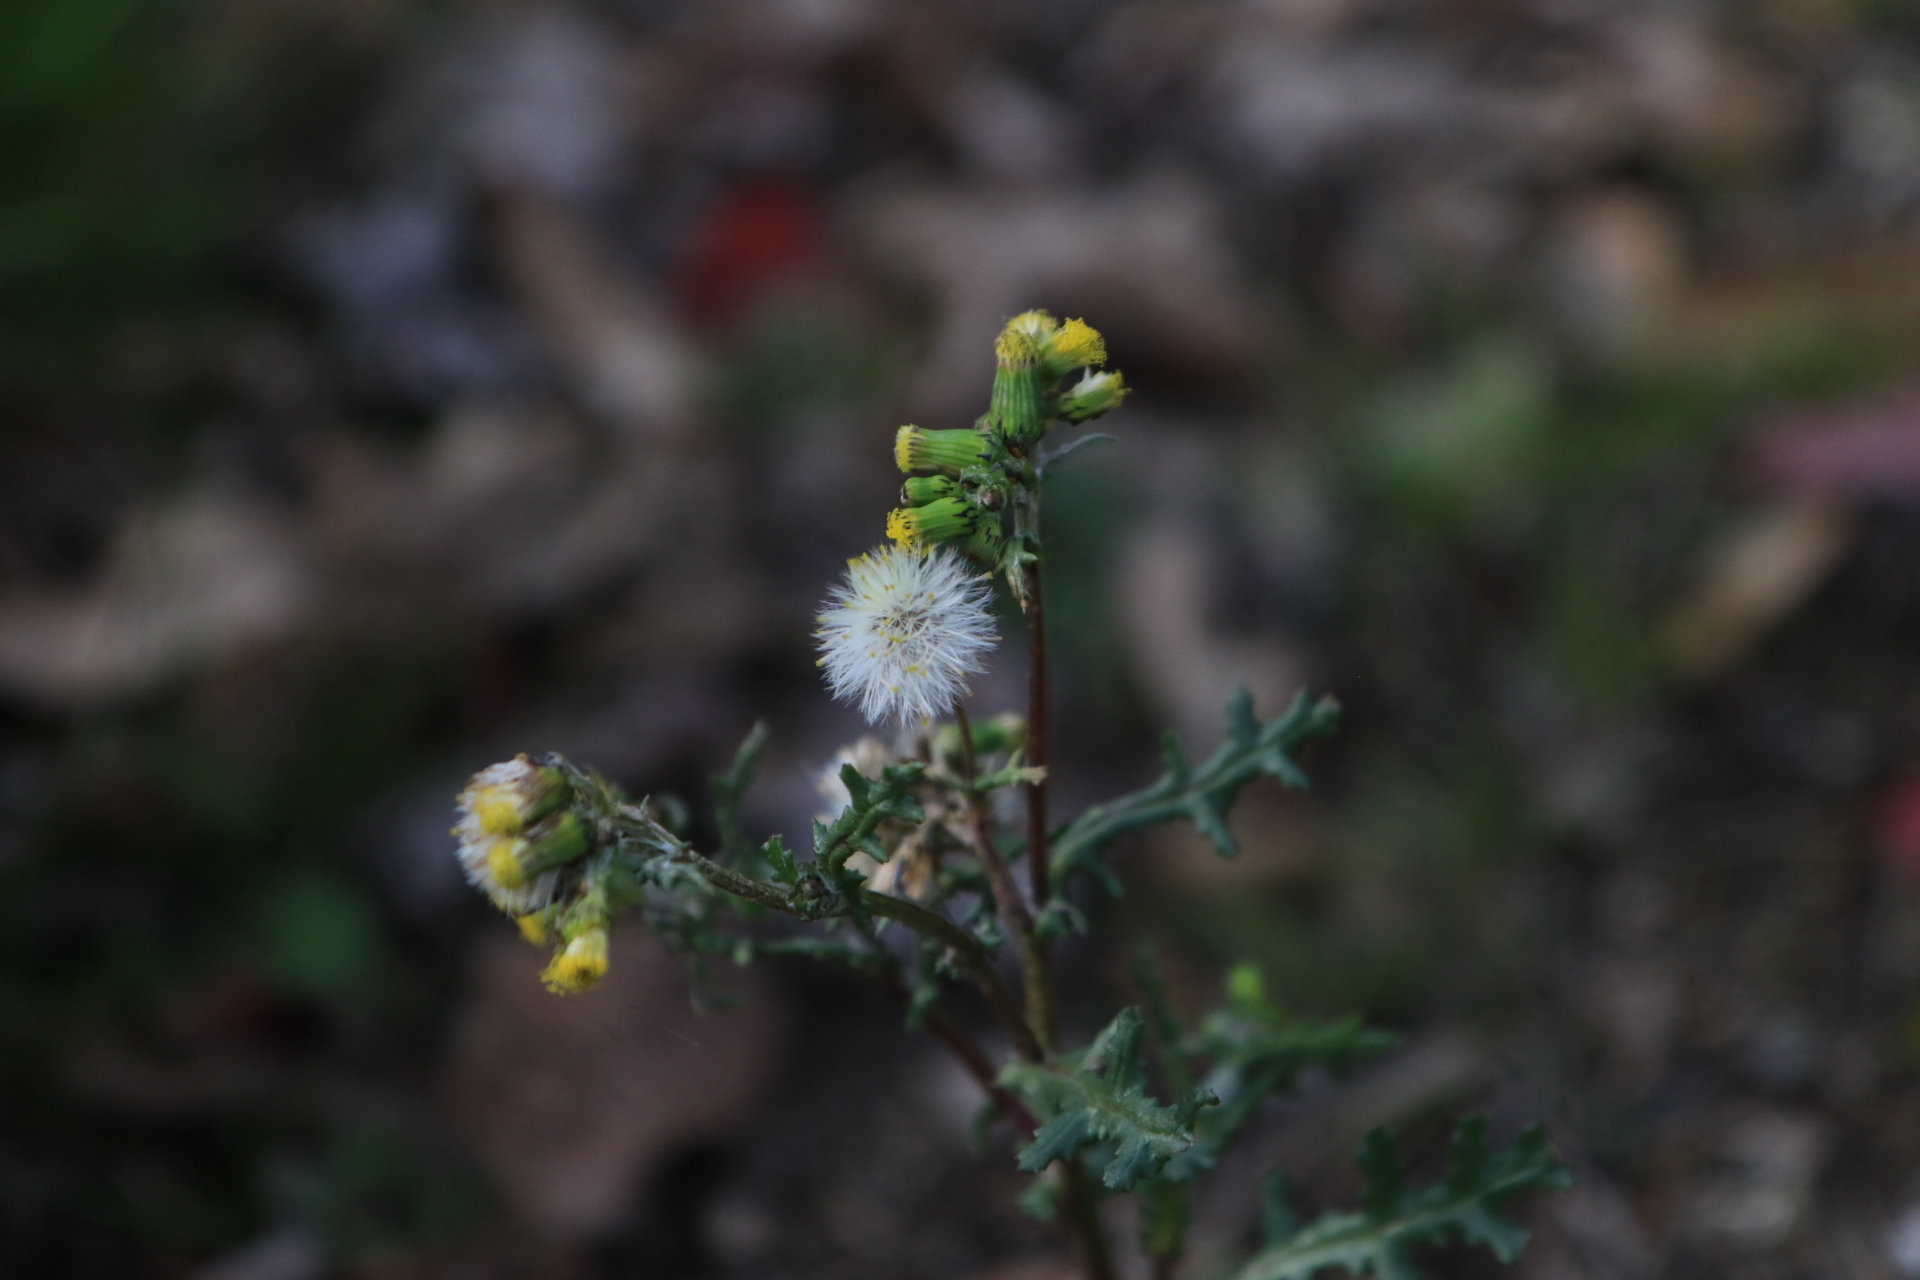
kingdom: Plantae
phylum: Tracheophyta
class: Magnoliopsida
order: Asterales
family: Asteraceae
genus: Senecio
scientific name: Senecio vulgaris
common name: Old-man-in-the-spring
